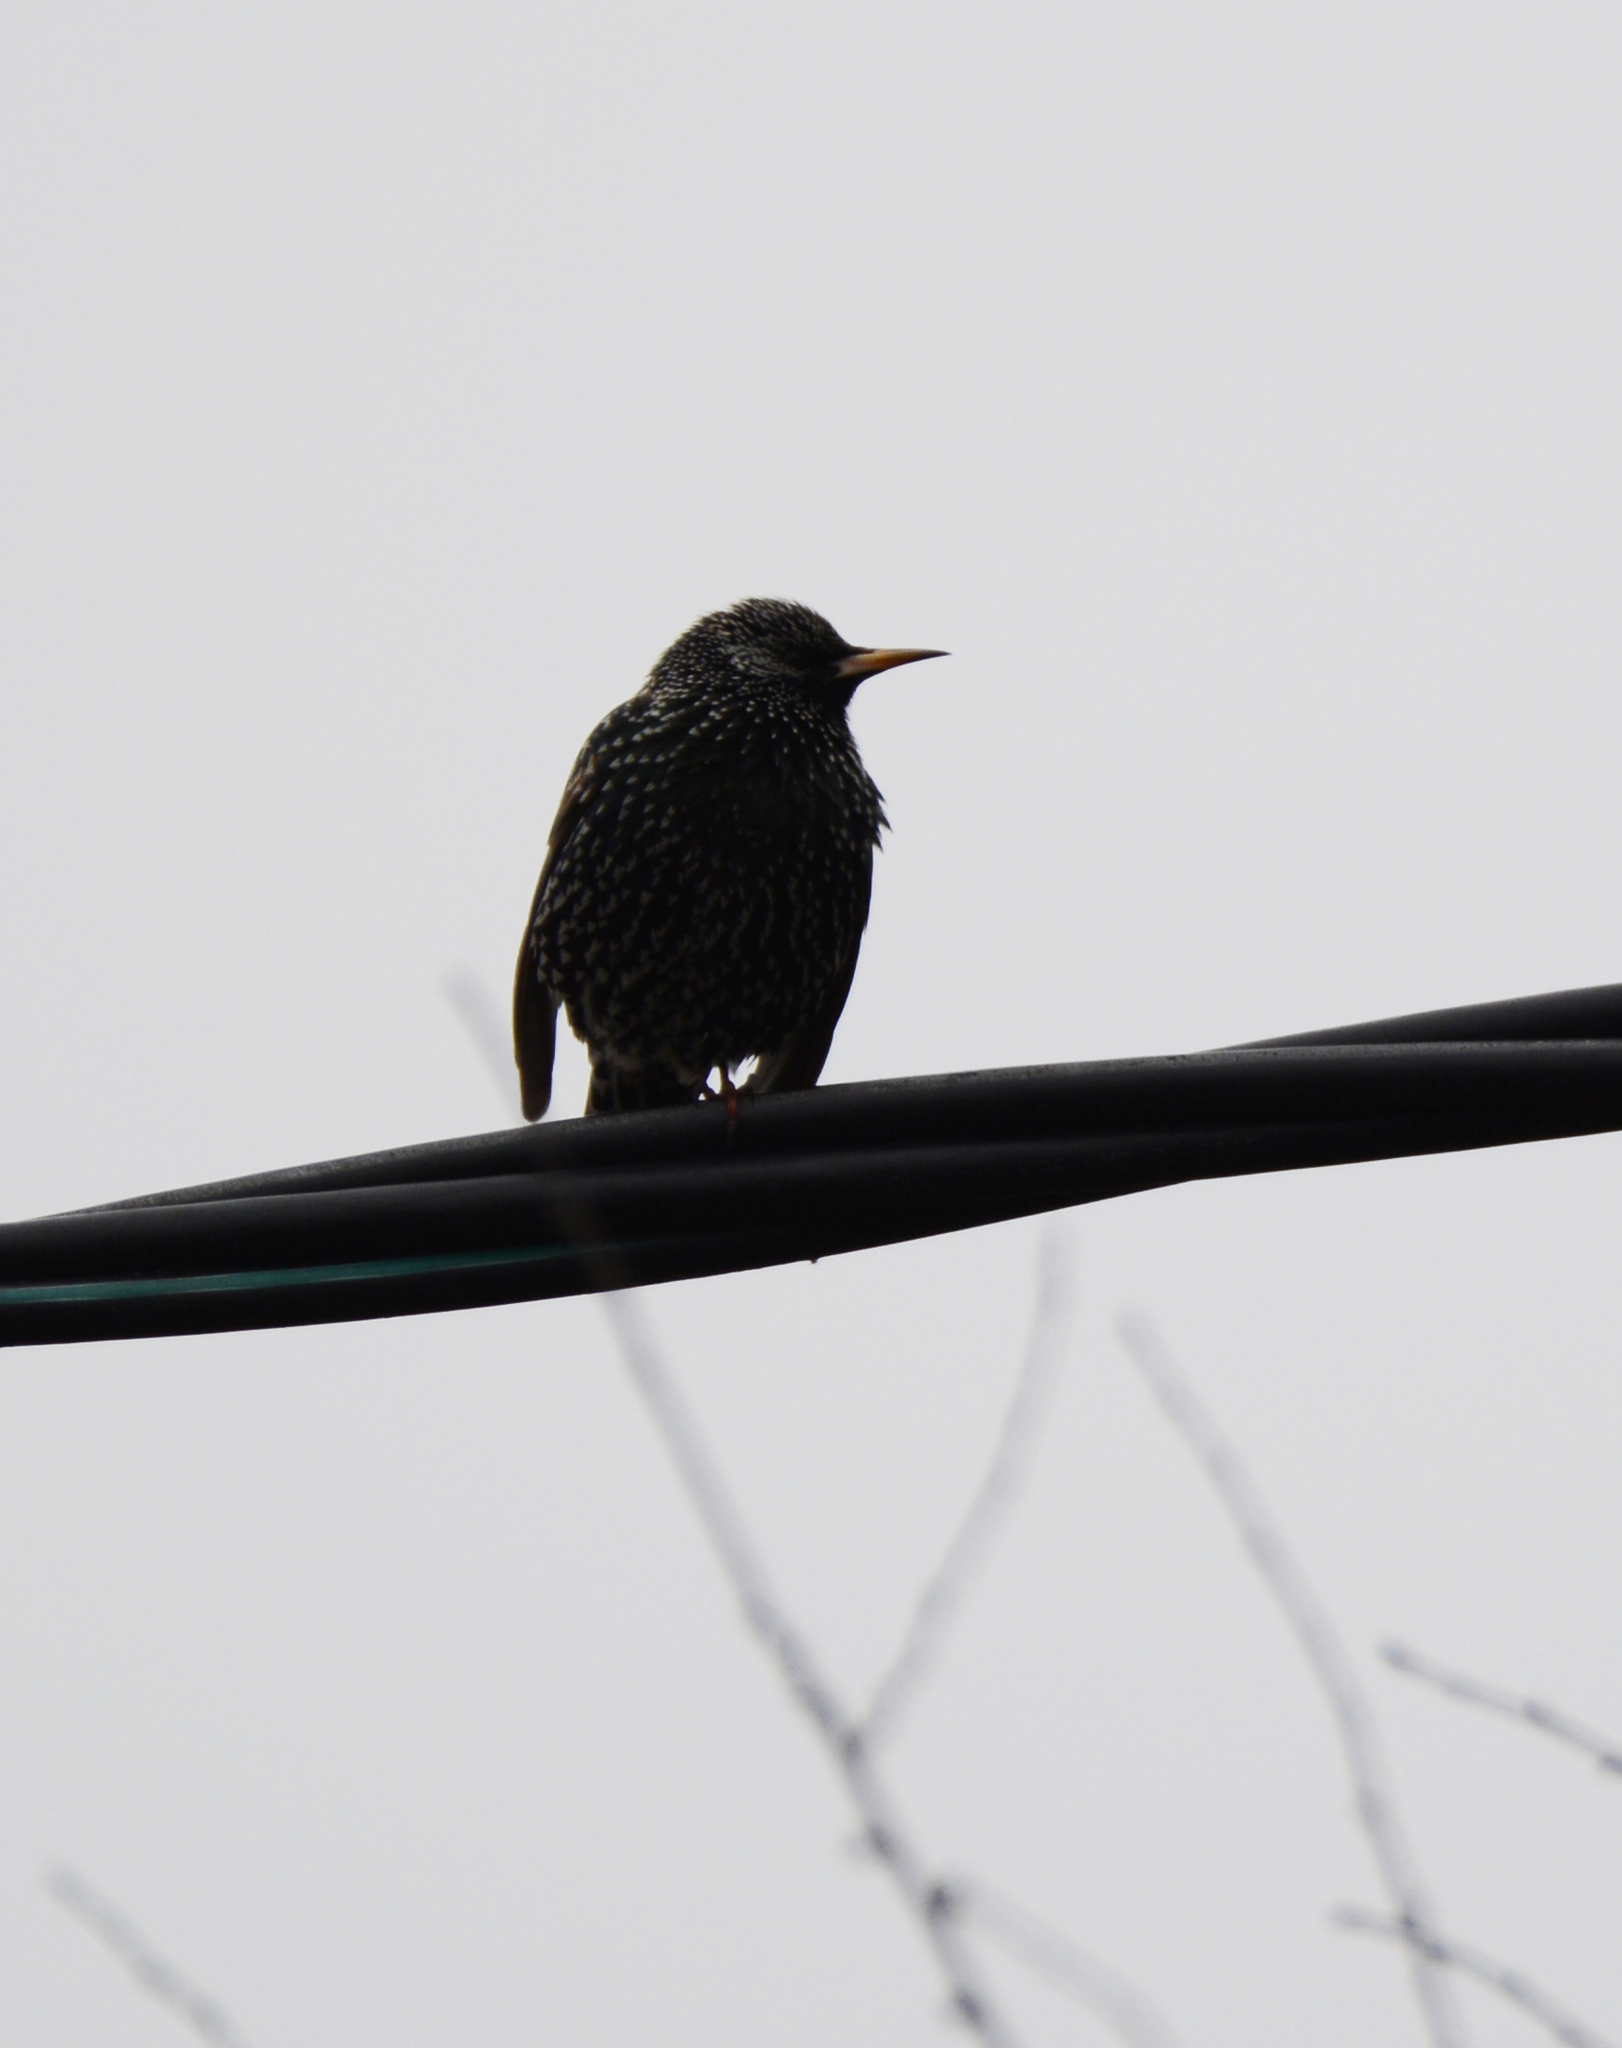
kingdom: Animalia
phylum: Chordata
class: Aves
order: Passeriformes
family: Sturnidae
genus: Sturnus
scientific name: Sturnus vulgaris
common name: Common starling
